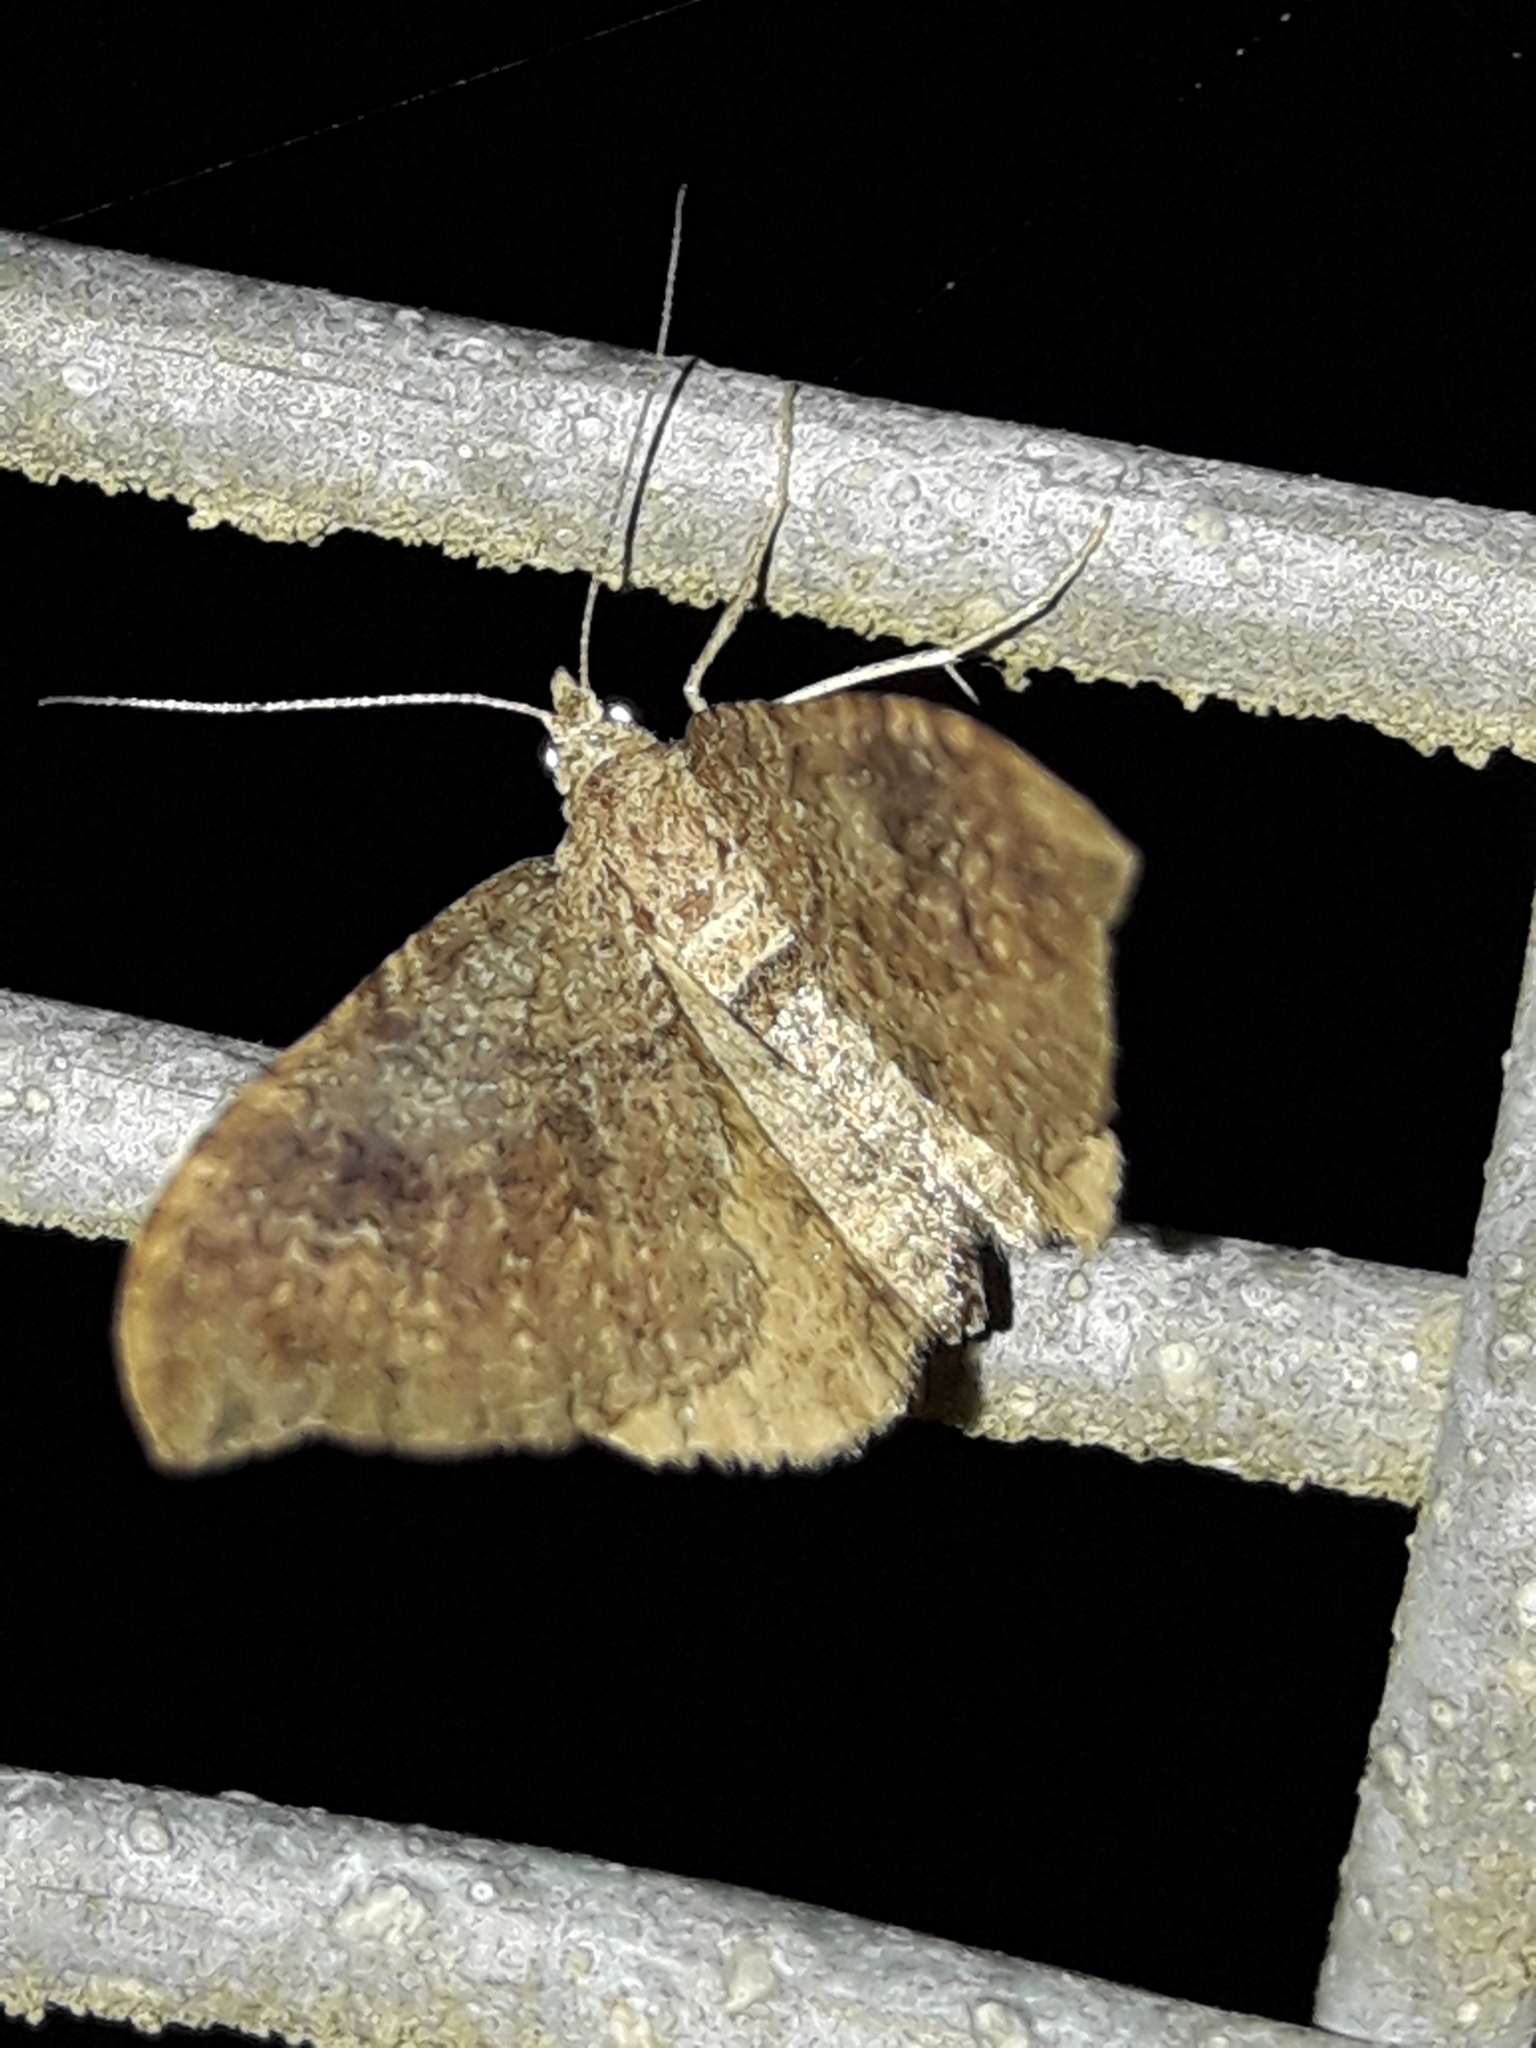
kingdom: Animalia
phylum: Arthropoda
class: Insecta
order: Lepidoptera
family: Geometridae
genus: Homodotis
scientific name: Homodotis megaspilata
